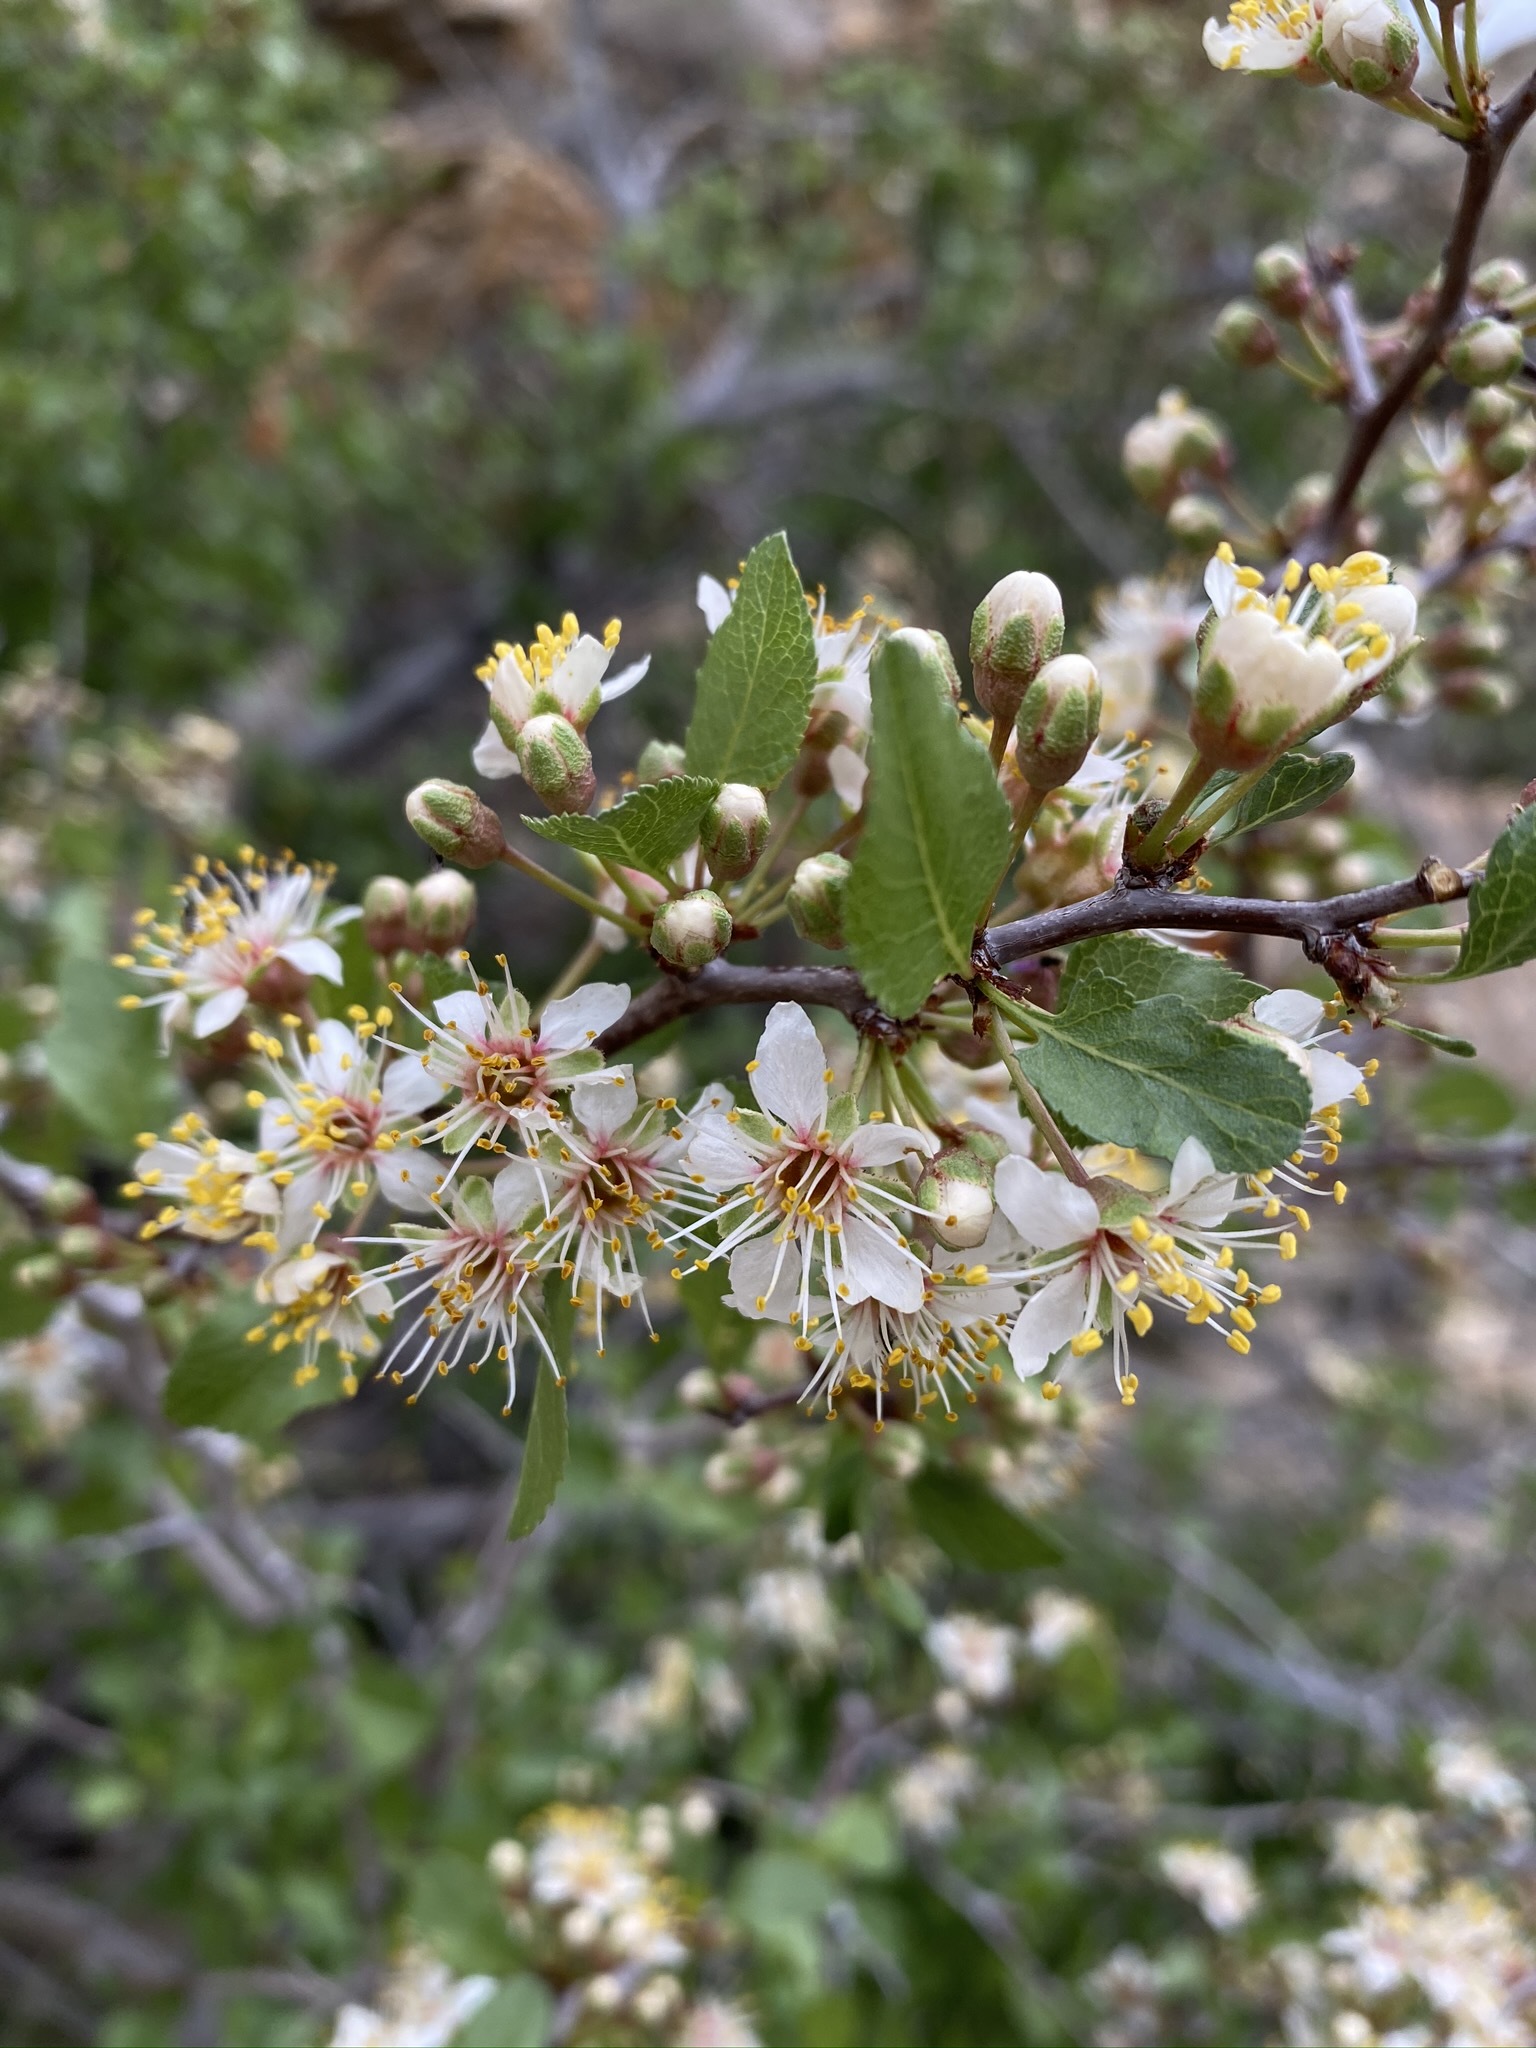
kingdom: Plantae
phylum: Tracheophyta
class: Magnoliopsida
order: Rosales
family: Rosaceae
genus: Prunus
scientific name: Prunus fremontii
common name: Desert apricot
